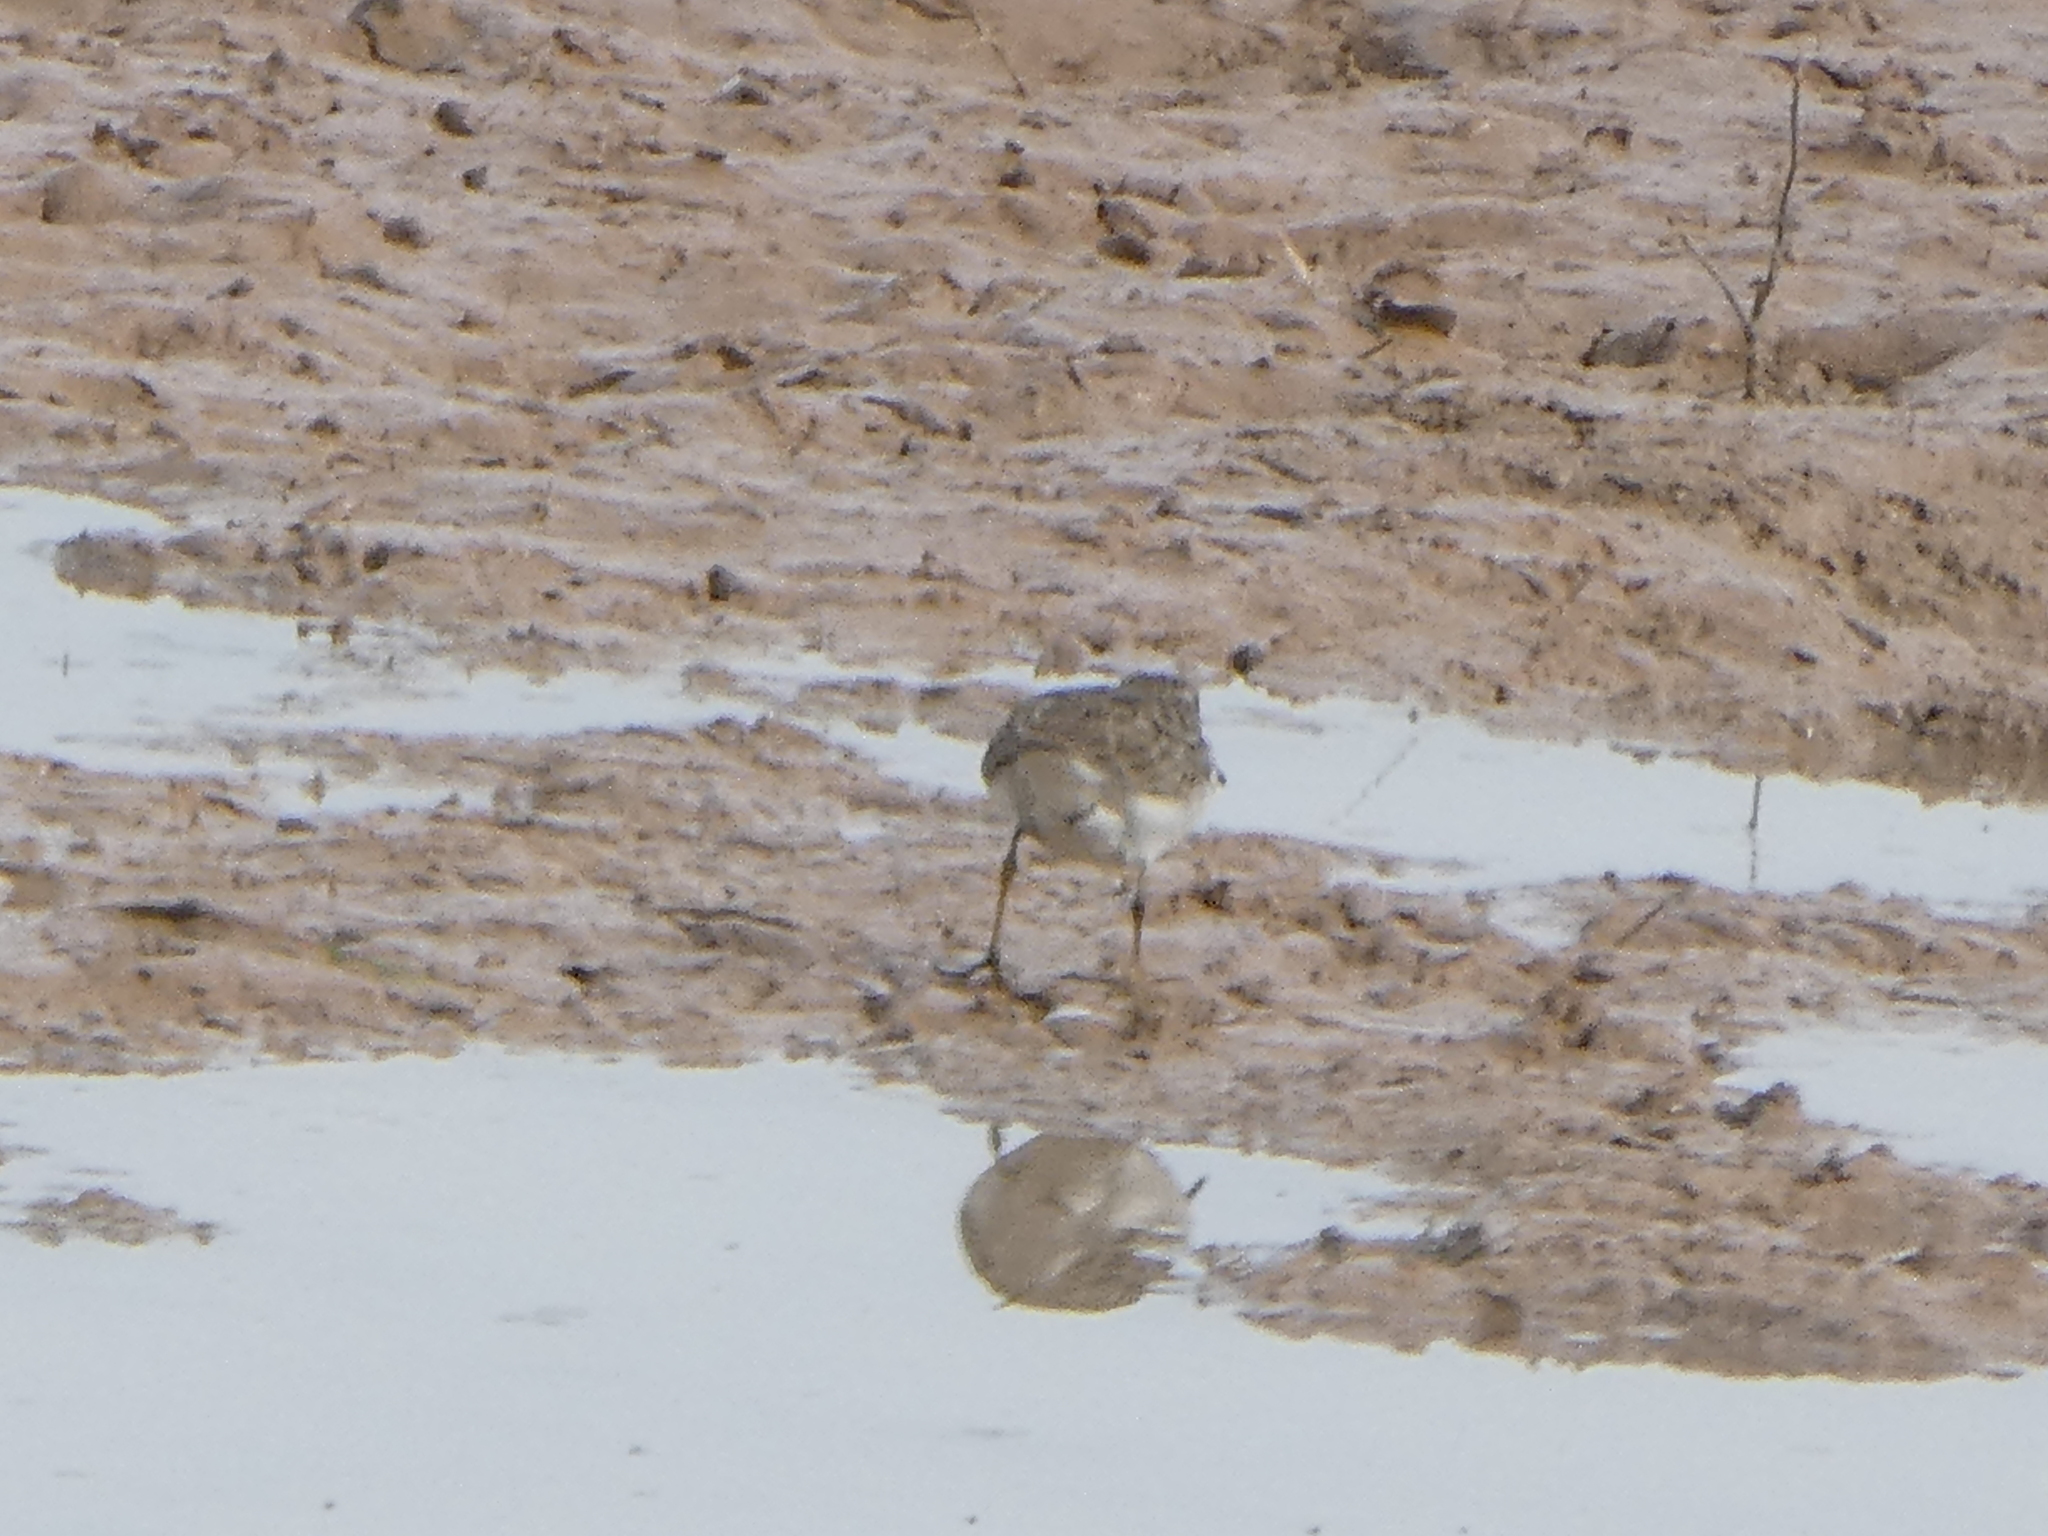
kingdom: Animalia
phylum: Chordata
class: Aves
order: Charadriiformes
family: Scolopacidae
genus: Calidris
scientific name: Calidris minutilla
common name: Least sandpiper
